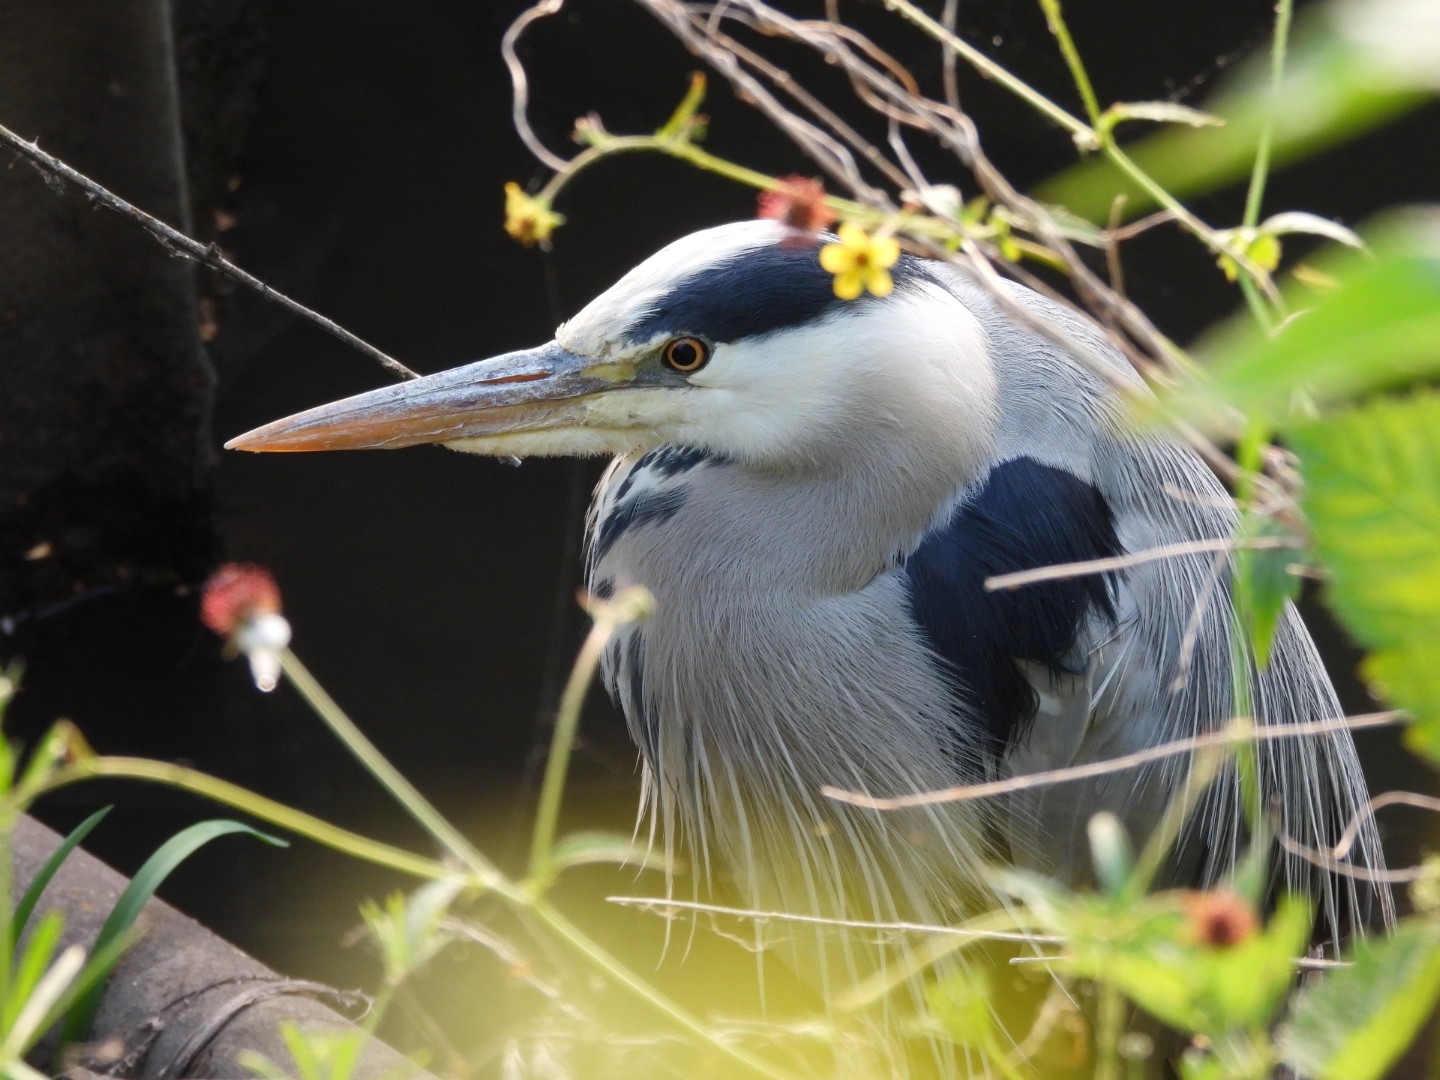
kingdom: Animalia
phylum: Chordata
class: Aves
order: Pelecaniformes
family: Ardeidae
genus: Ardea
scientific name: Ardea cinerea
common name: Grey heron
